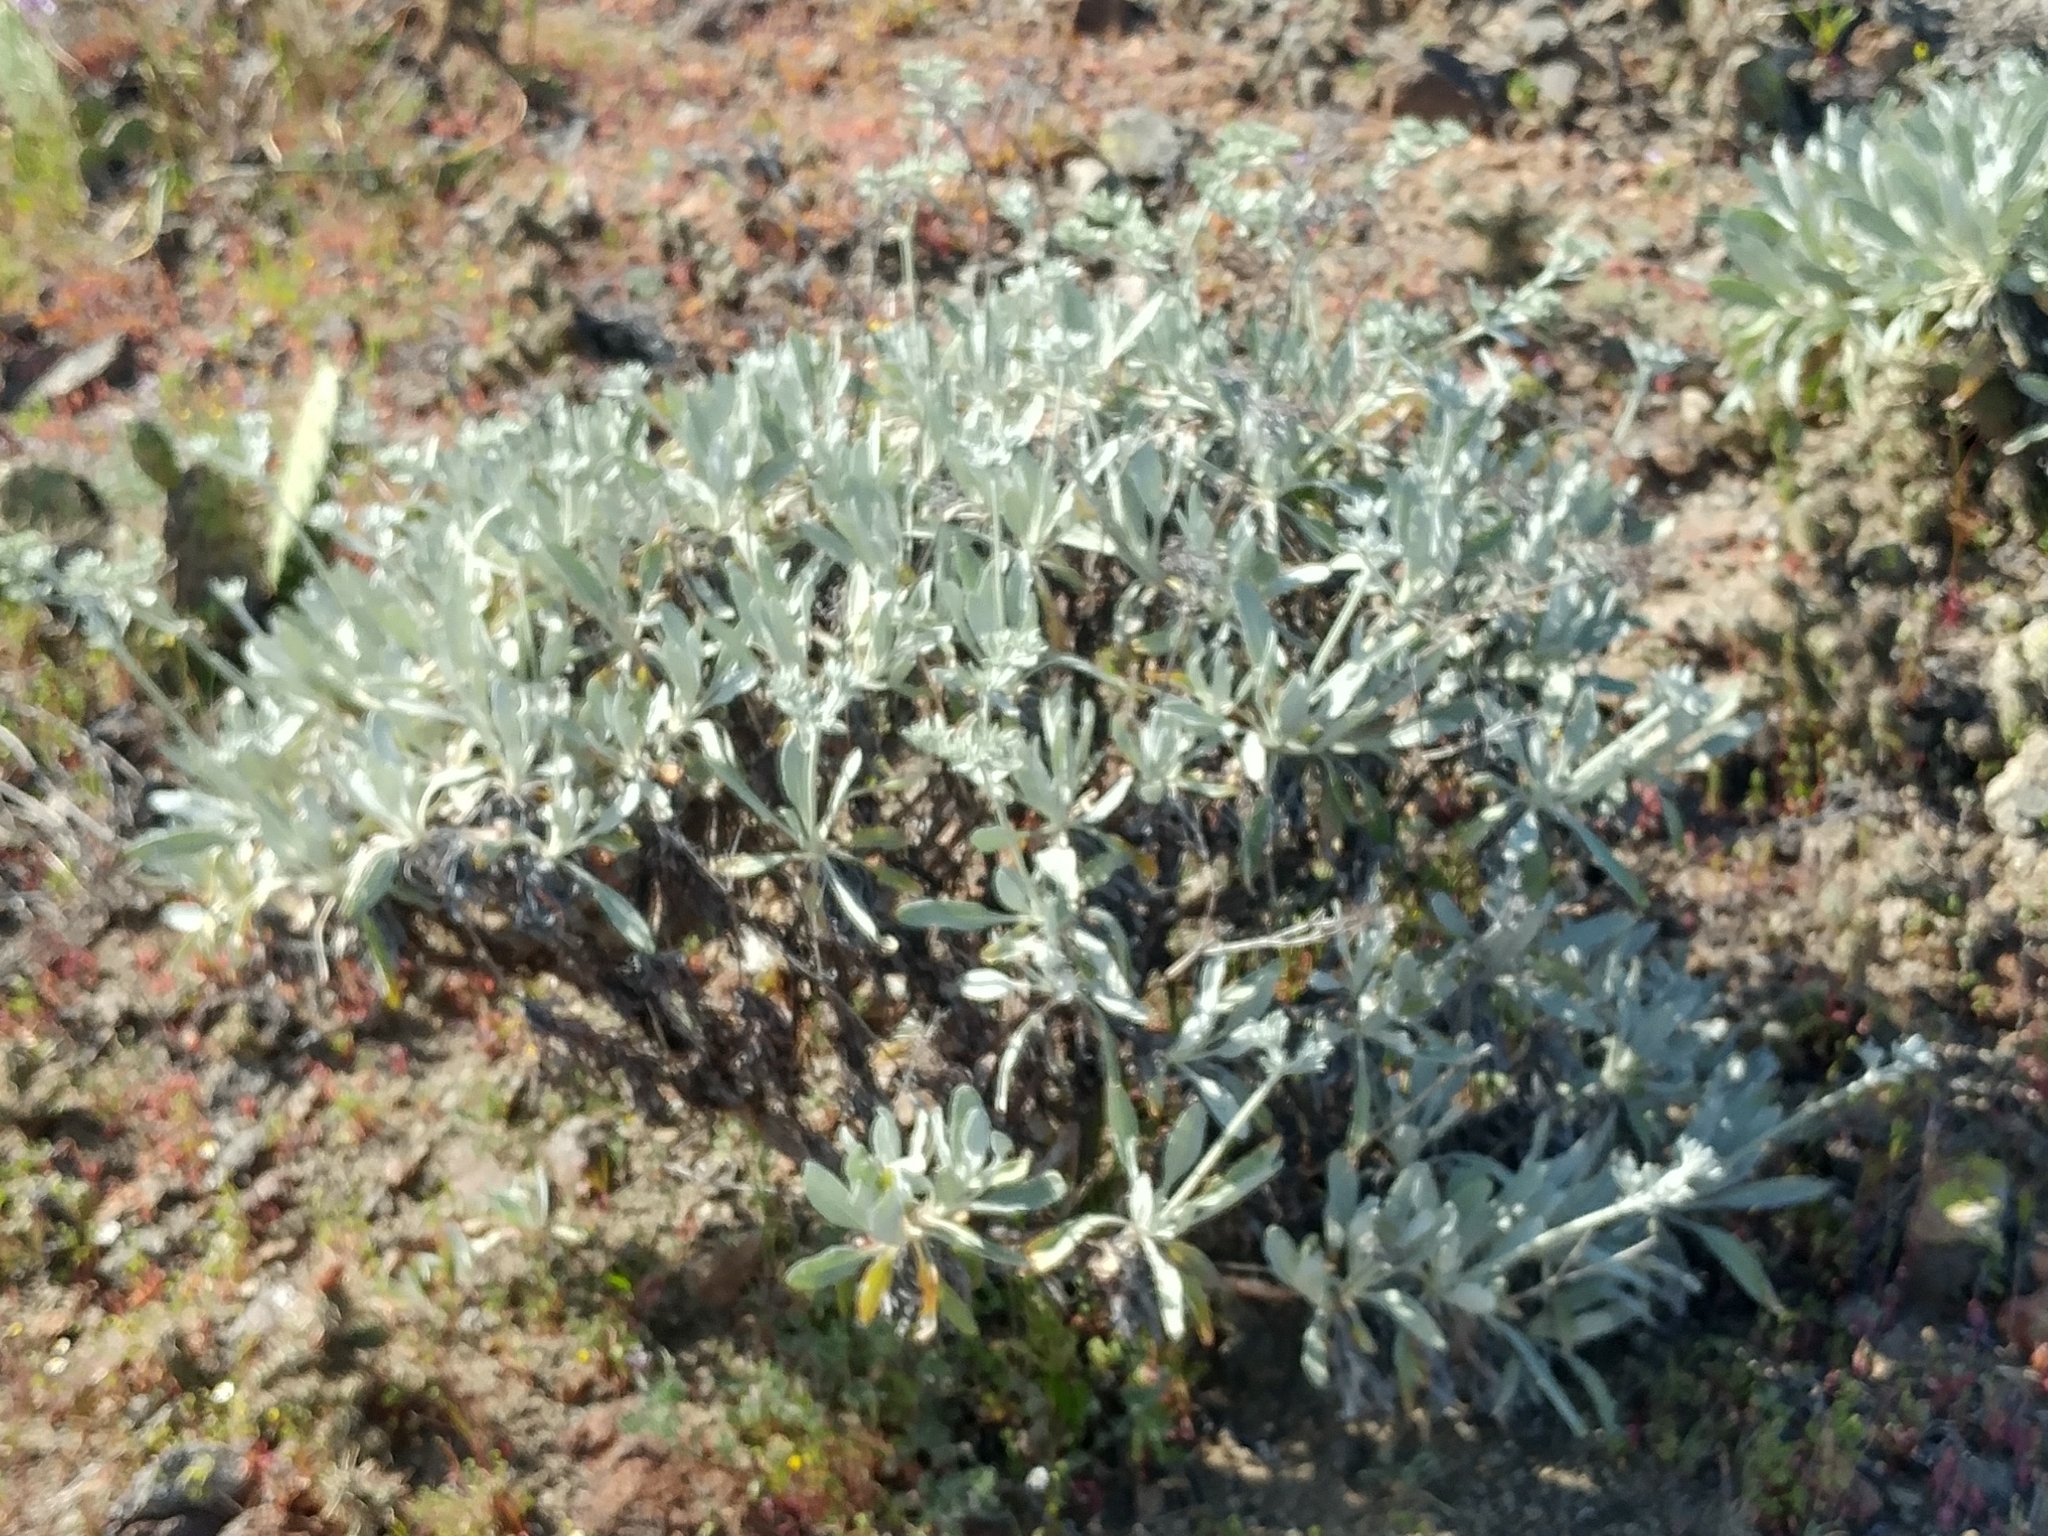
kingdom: Plantae
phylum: Tracheophyta
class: Magnoliopsida
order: Caryophyllales
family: Polygonaceae
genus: Eriogonum
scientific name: Eriogonum giganteum
